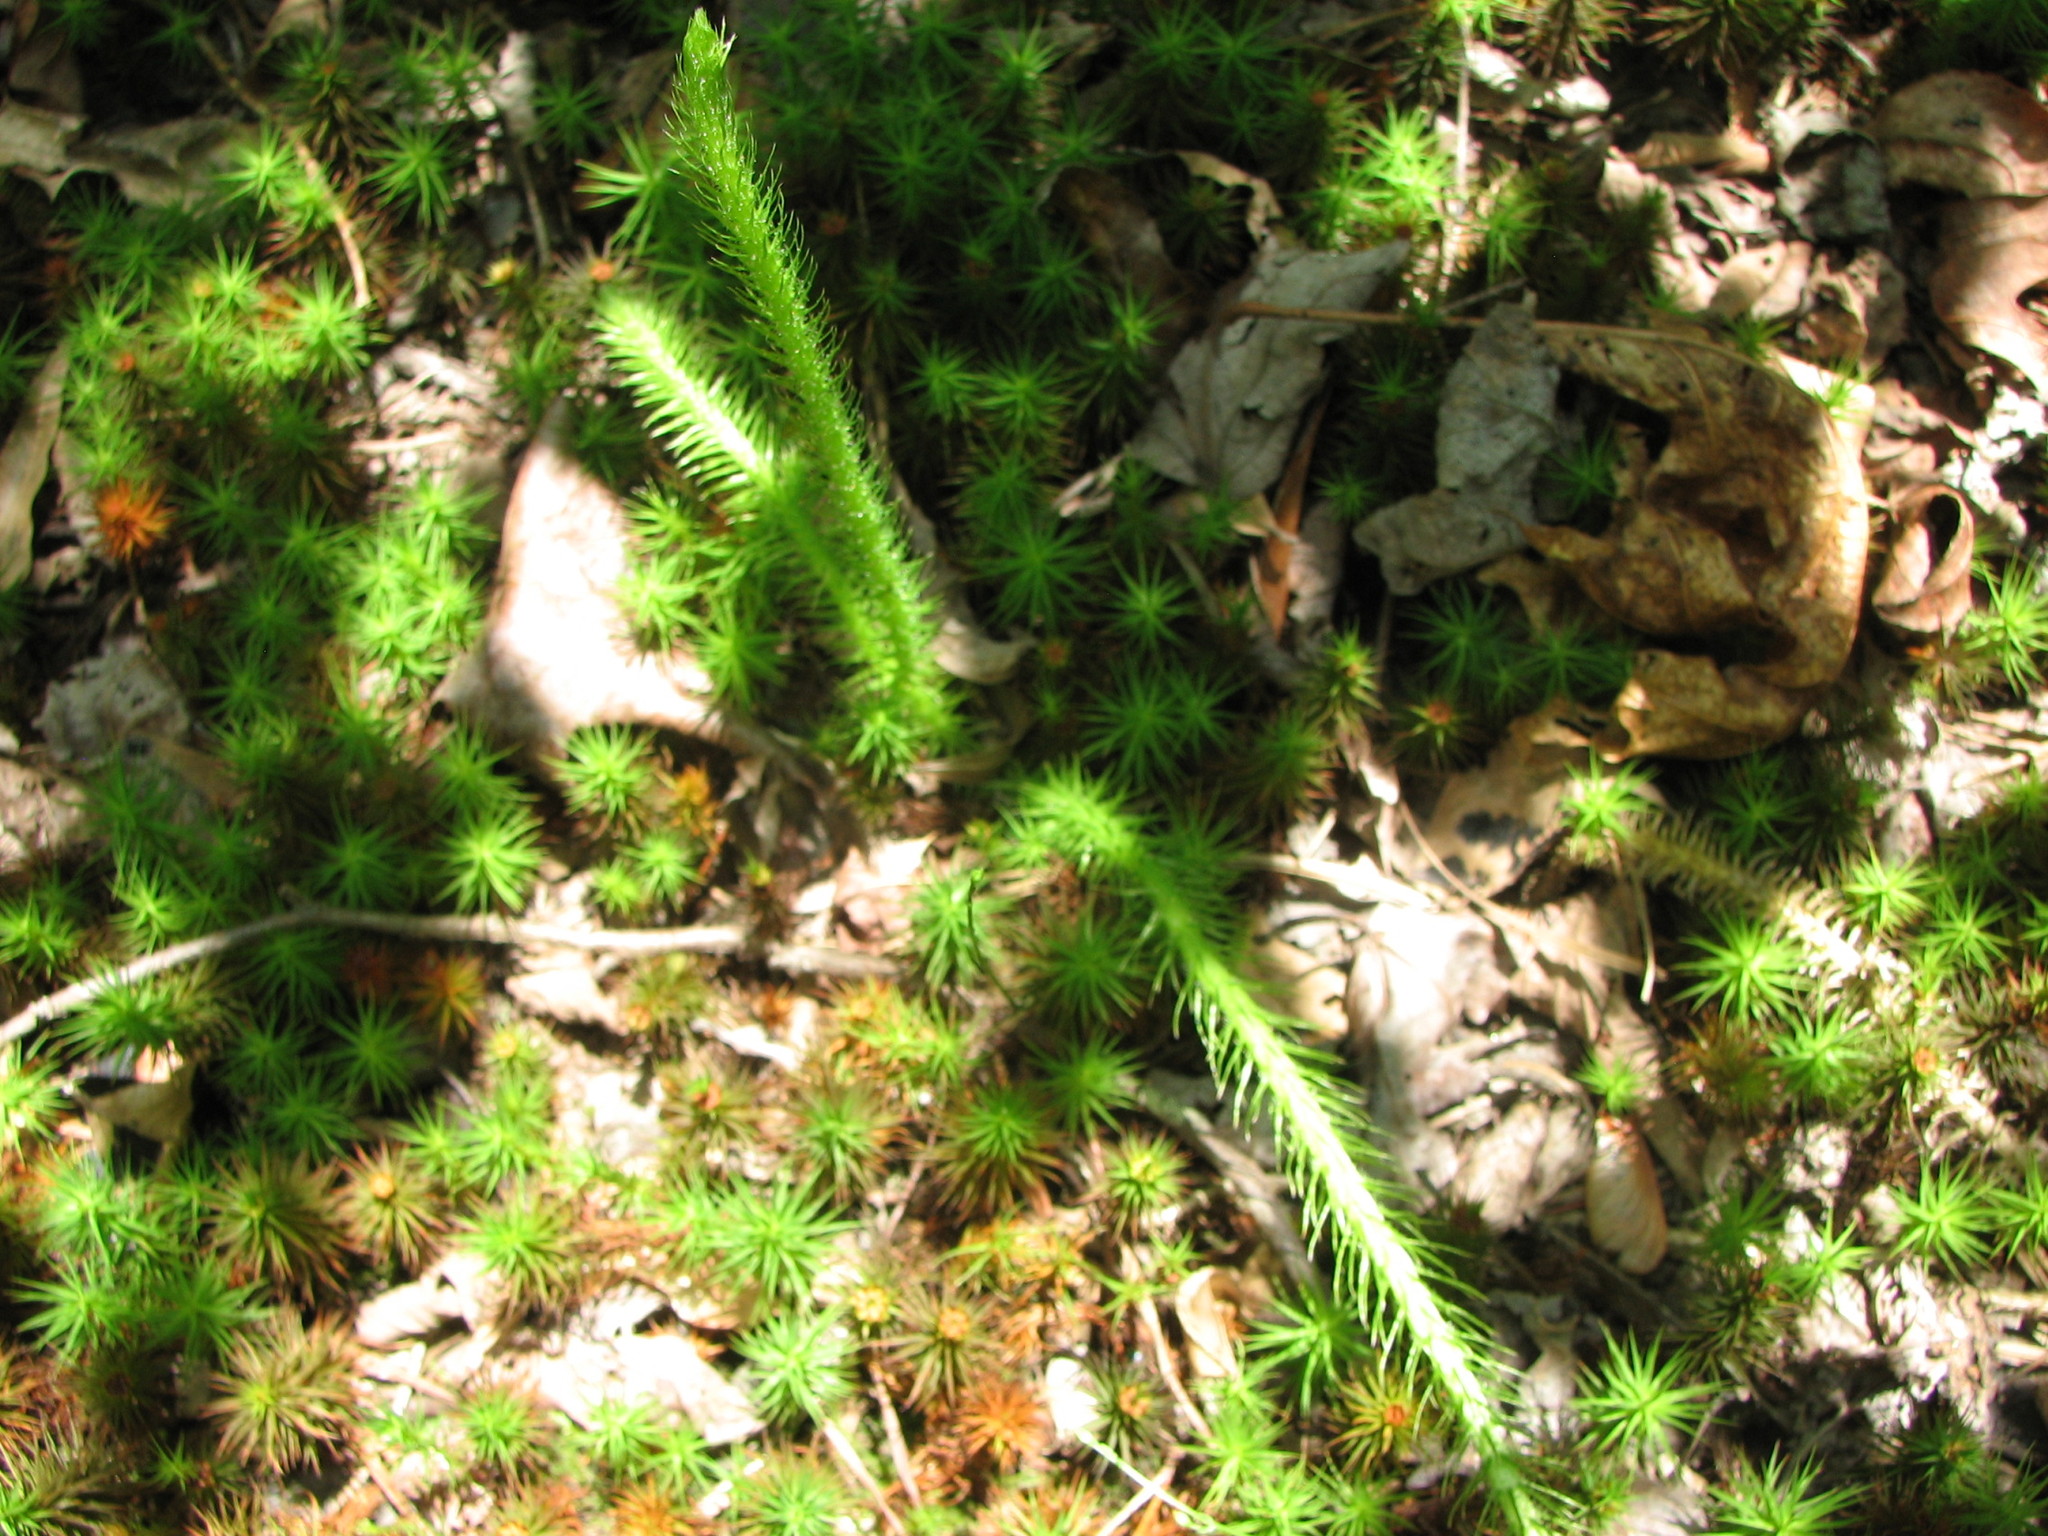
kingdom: Plantae
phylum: Tracheophyta
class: Lycopodiopsida
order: Lycopodiales
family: Lycopodiaceae
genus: Lycopodiella
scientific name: Lycopodiella alopecuroides
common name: Foxtail clubmoss
